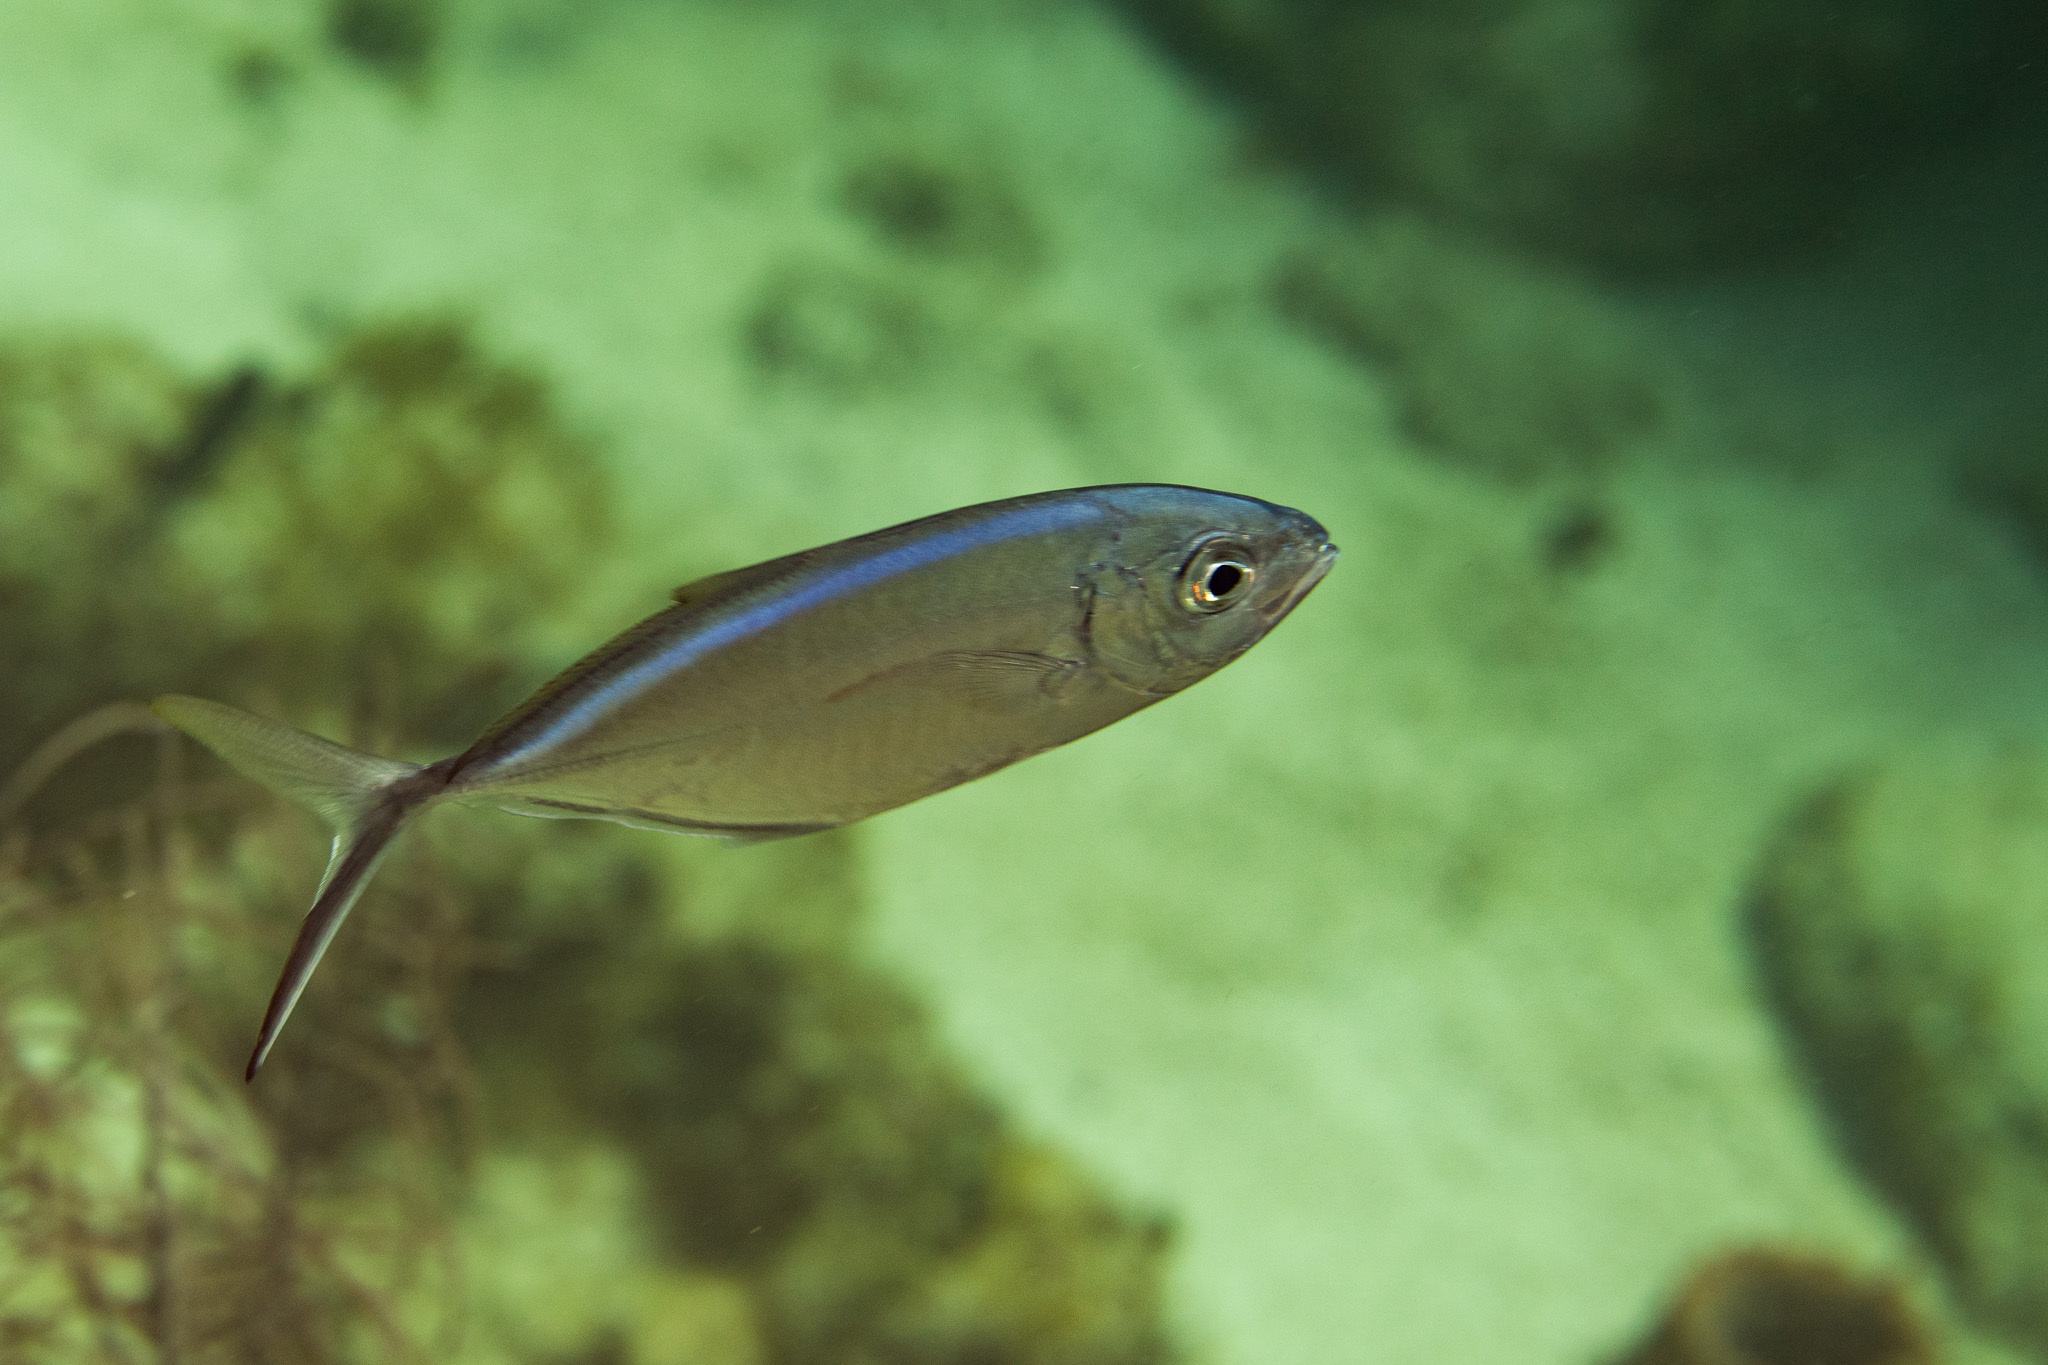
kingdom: Animalia
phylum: Chordata
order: Perciformes
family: Carangidae
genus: Caranx
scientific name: Caranx ruber
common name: Bar jack
